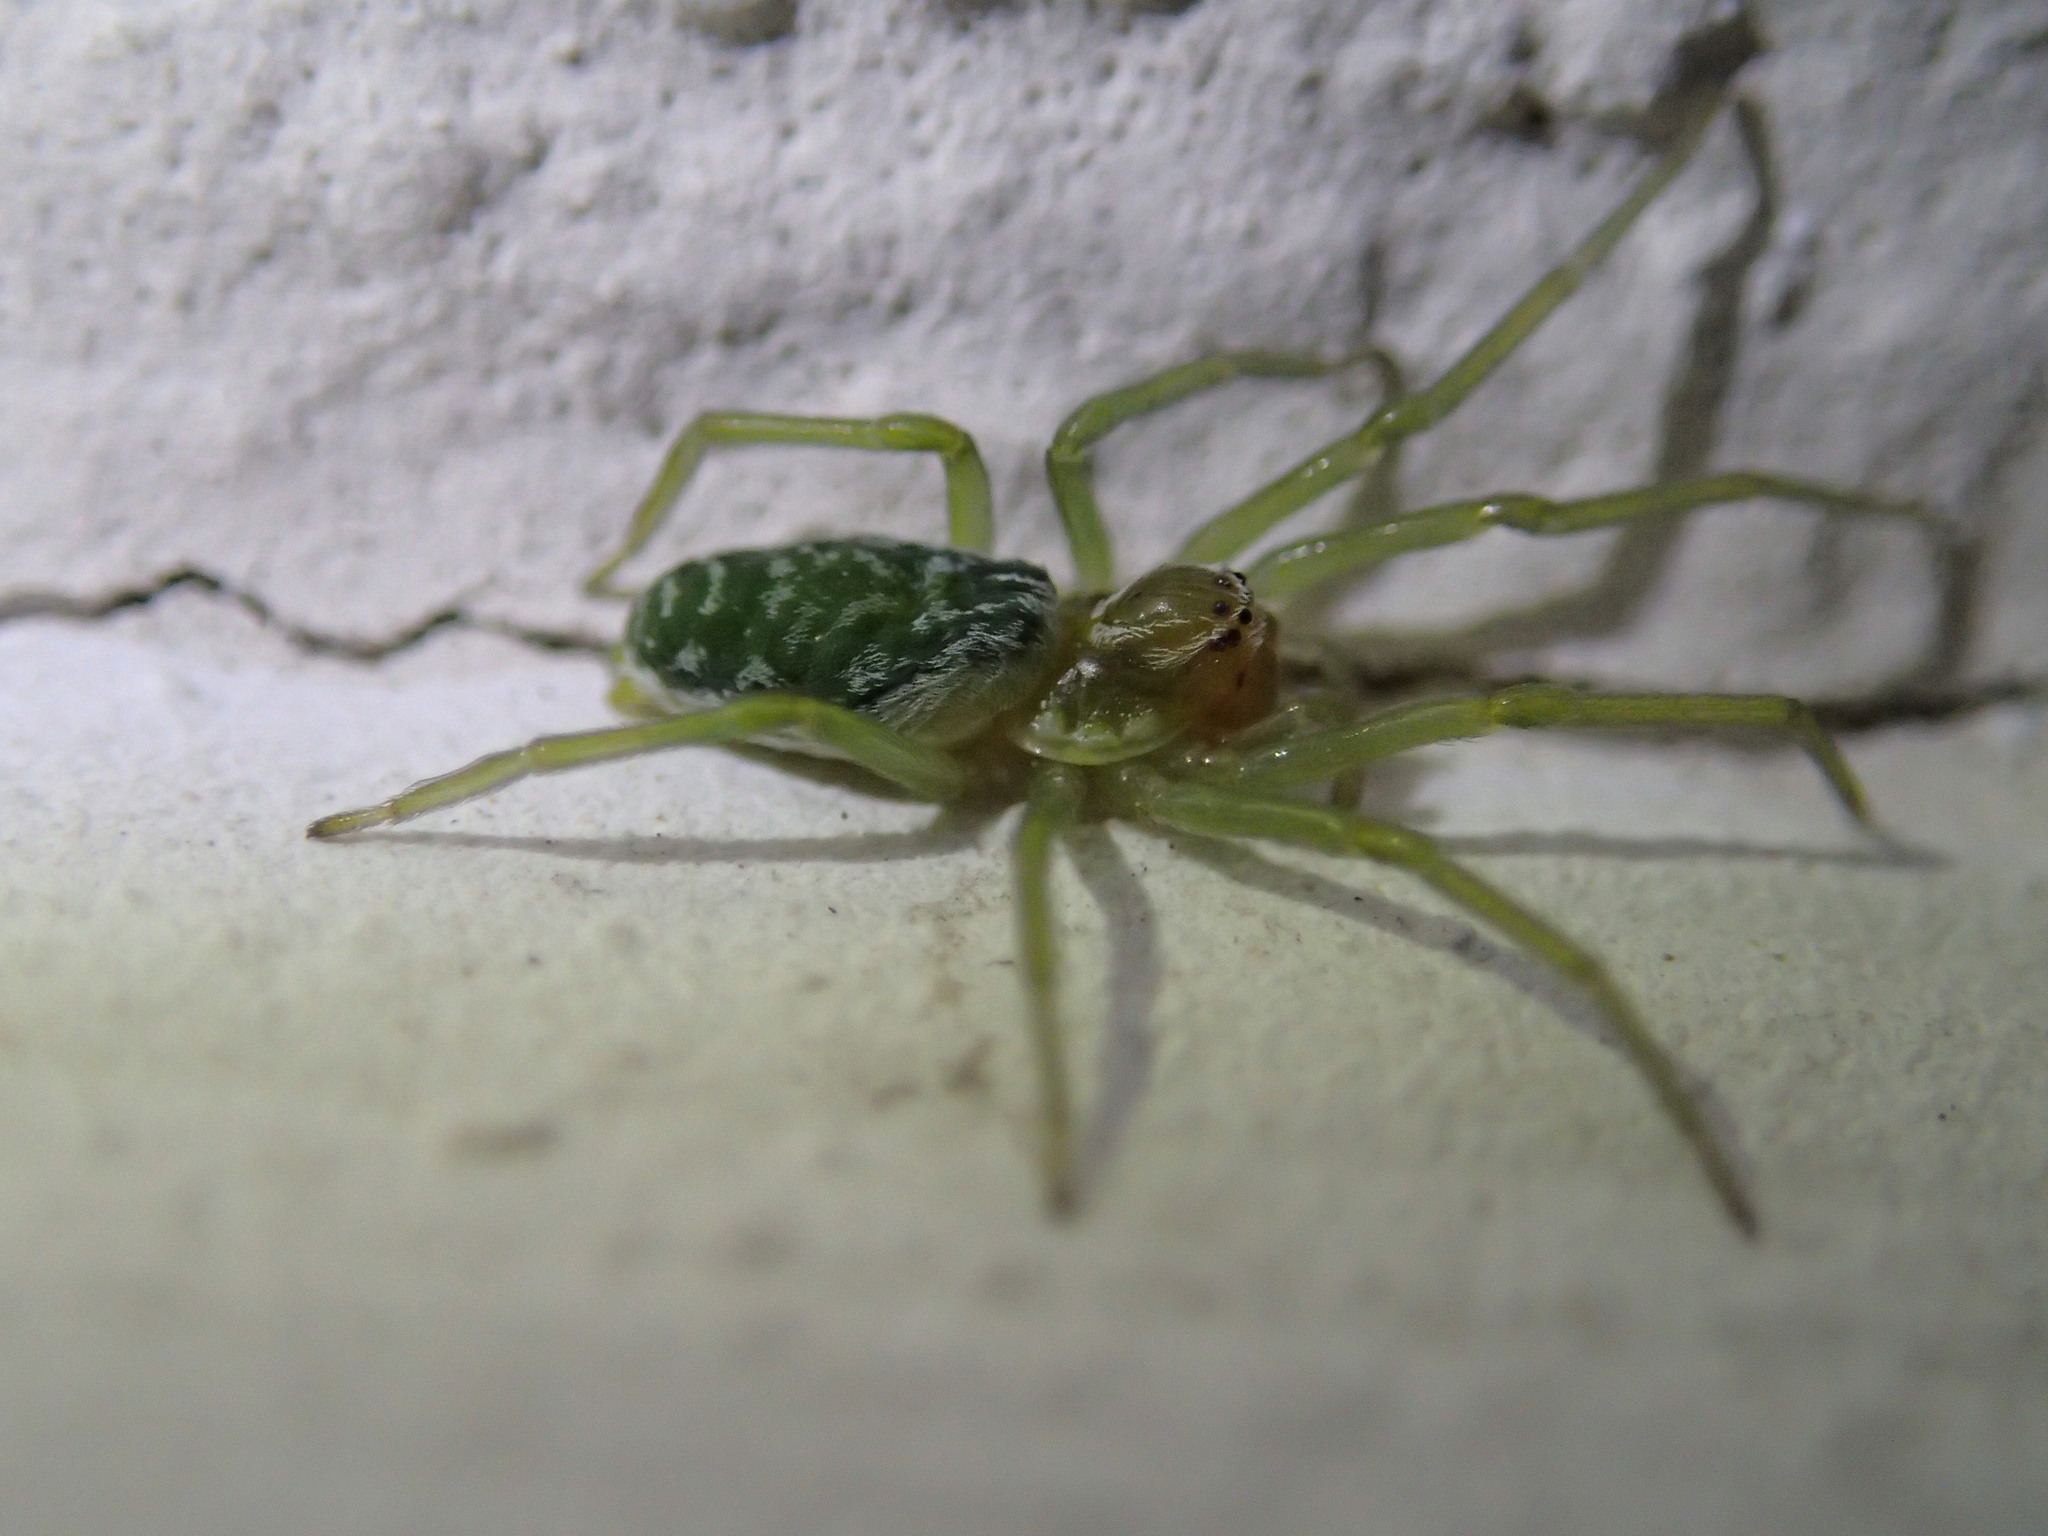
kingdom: Animalia
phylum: Arthropoda
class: Arachnida
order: Araneae
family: Dictynidae
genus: Nigma
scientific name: Nigma walckenaeri
